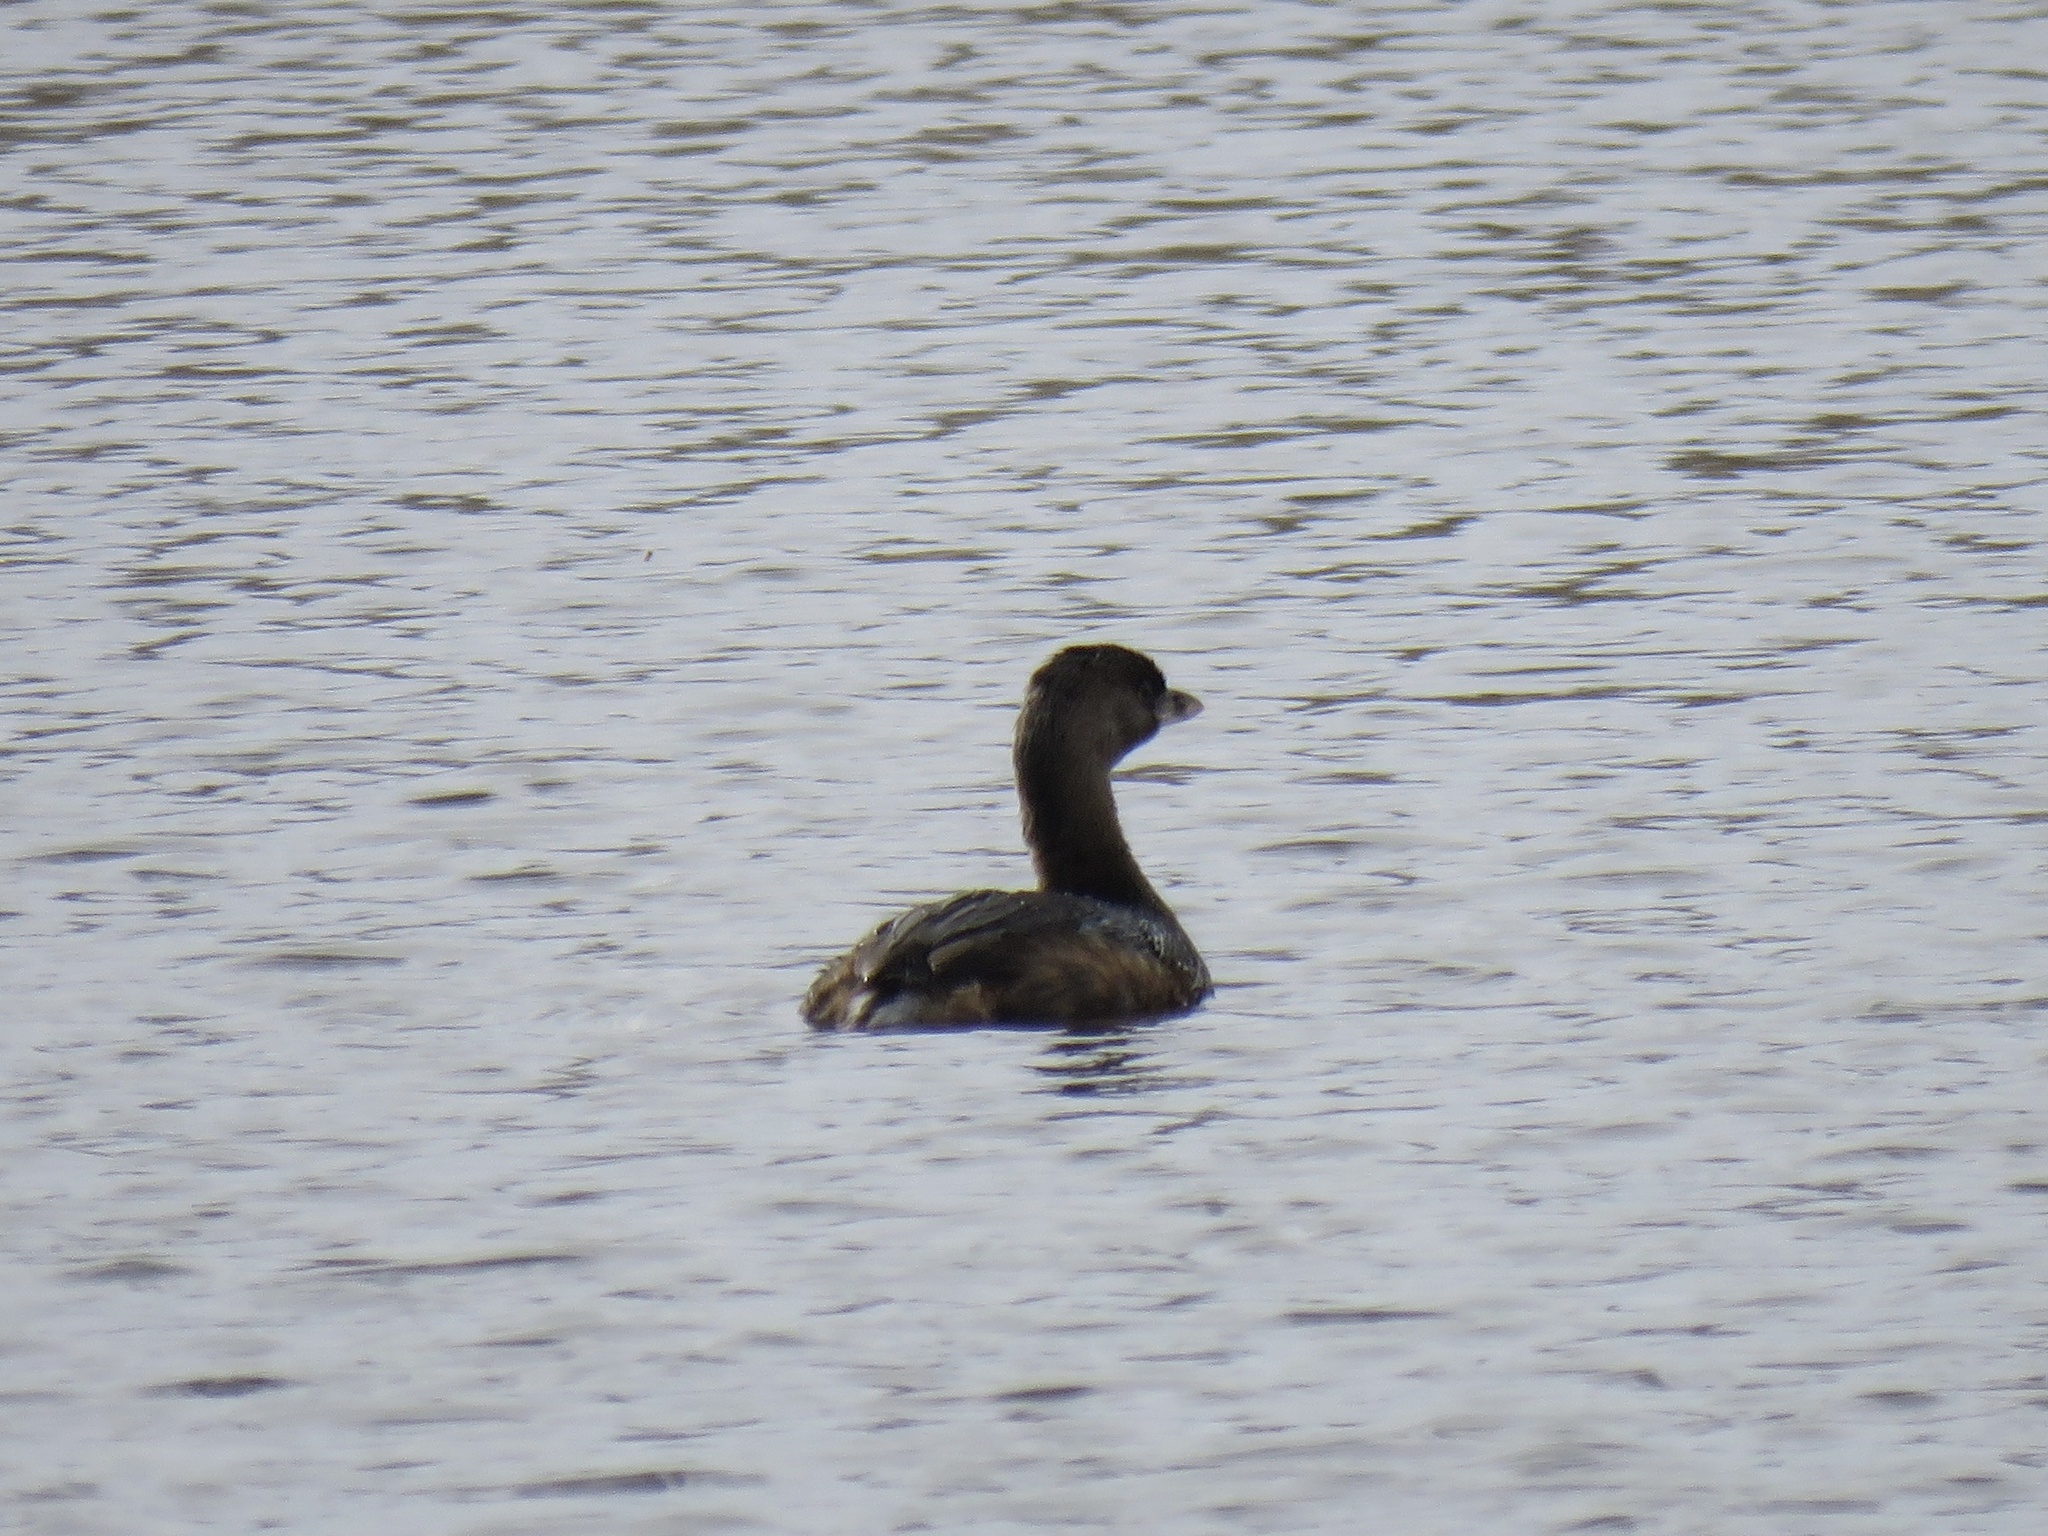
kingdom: Animalia
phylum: Chordata
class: Aves
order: Podicipediformes
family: Podicipedidae
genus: Podilymbus
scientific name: Podilymbus podiceps
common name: Pied-billed grebe
